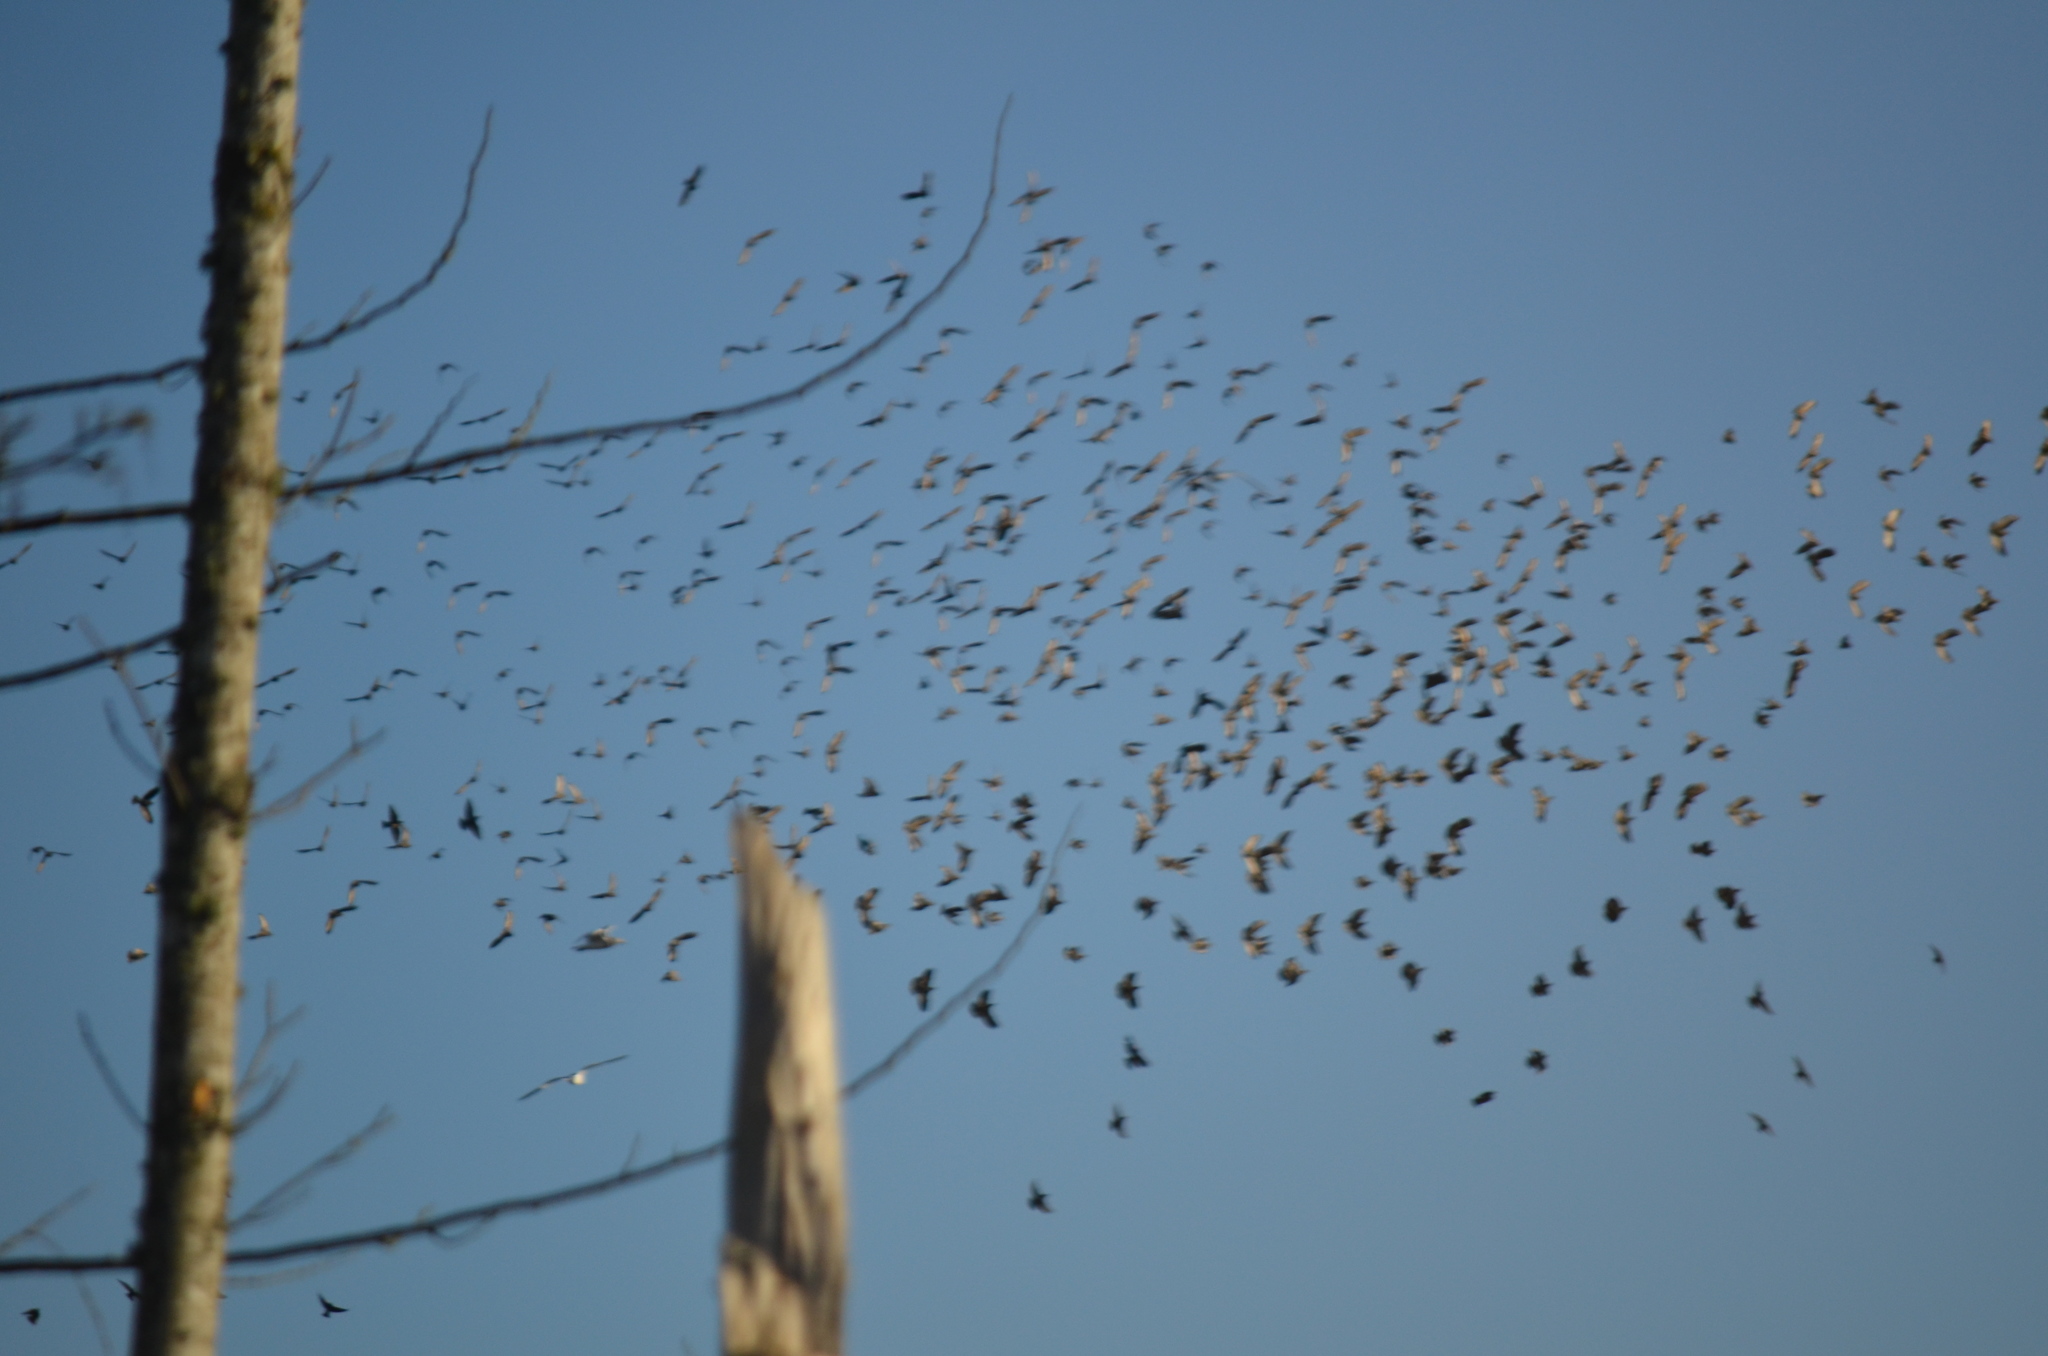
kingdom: Animalia
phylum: Chordata
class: Aves
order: Passeriformes
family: Sturnidae
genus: Sturnus
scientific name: Sturnus vulgaris
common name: Common starling
